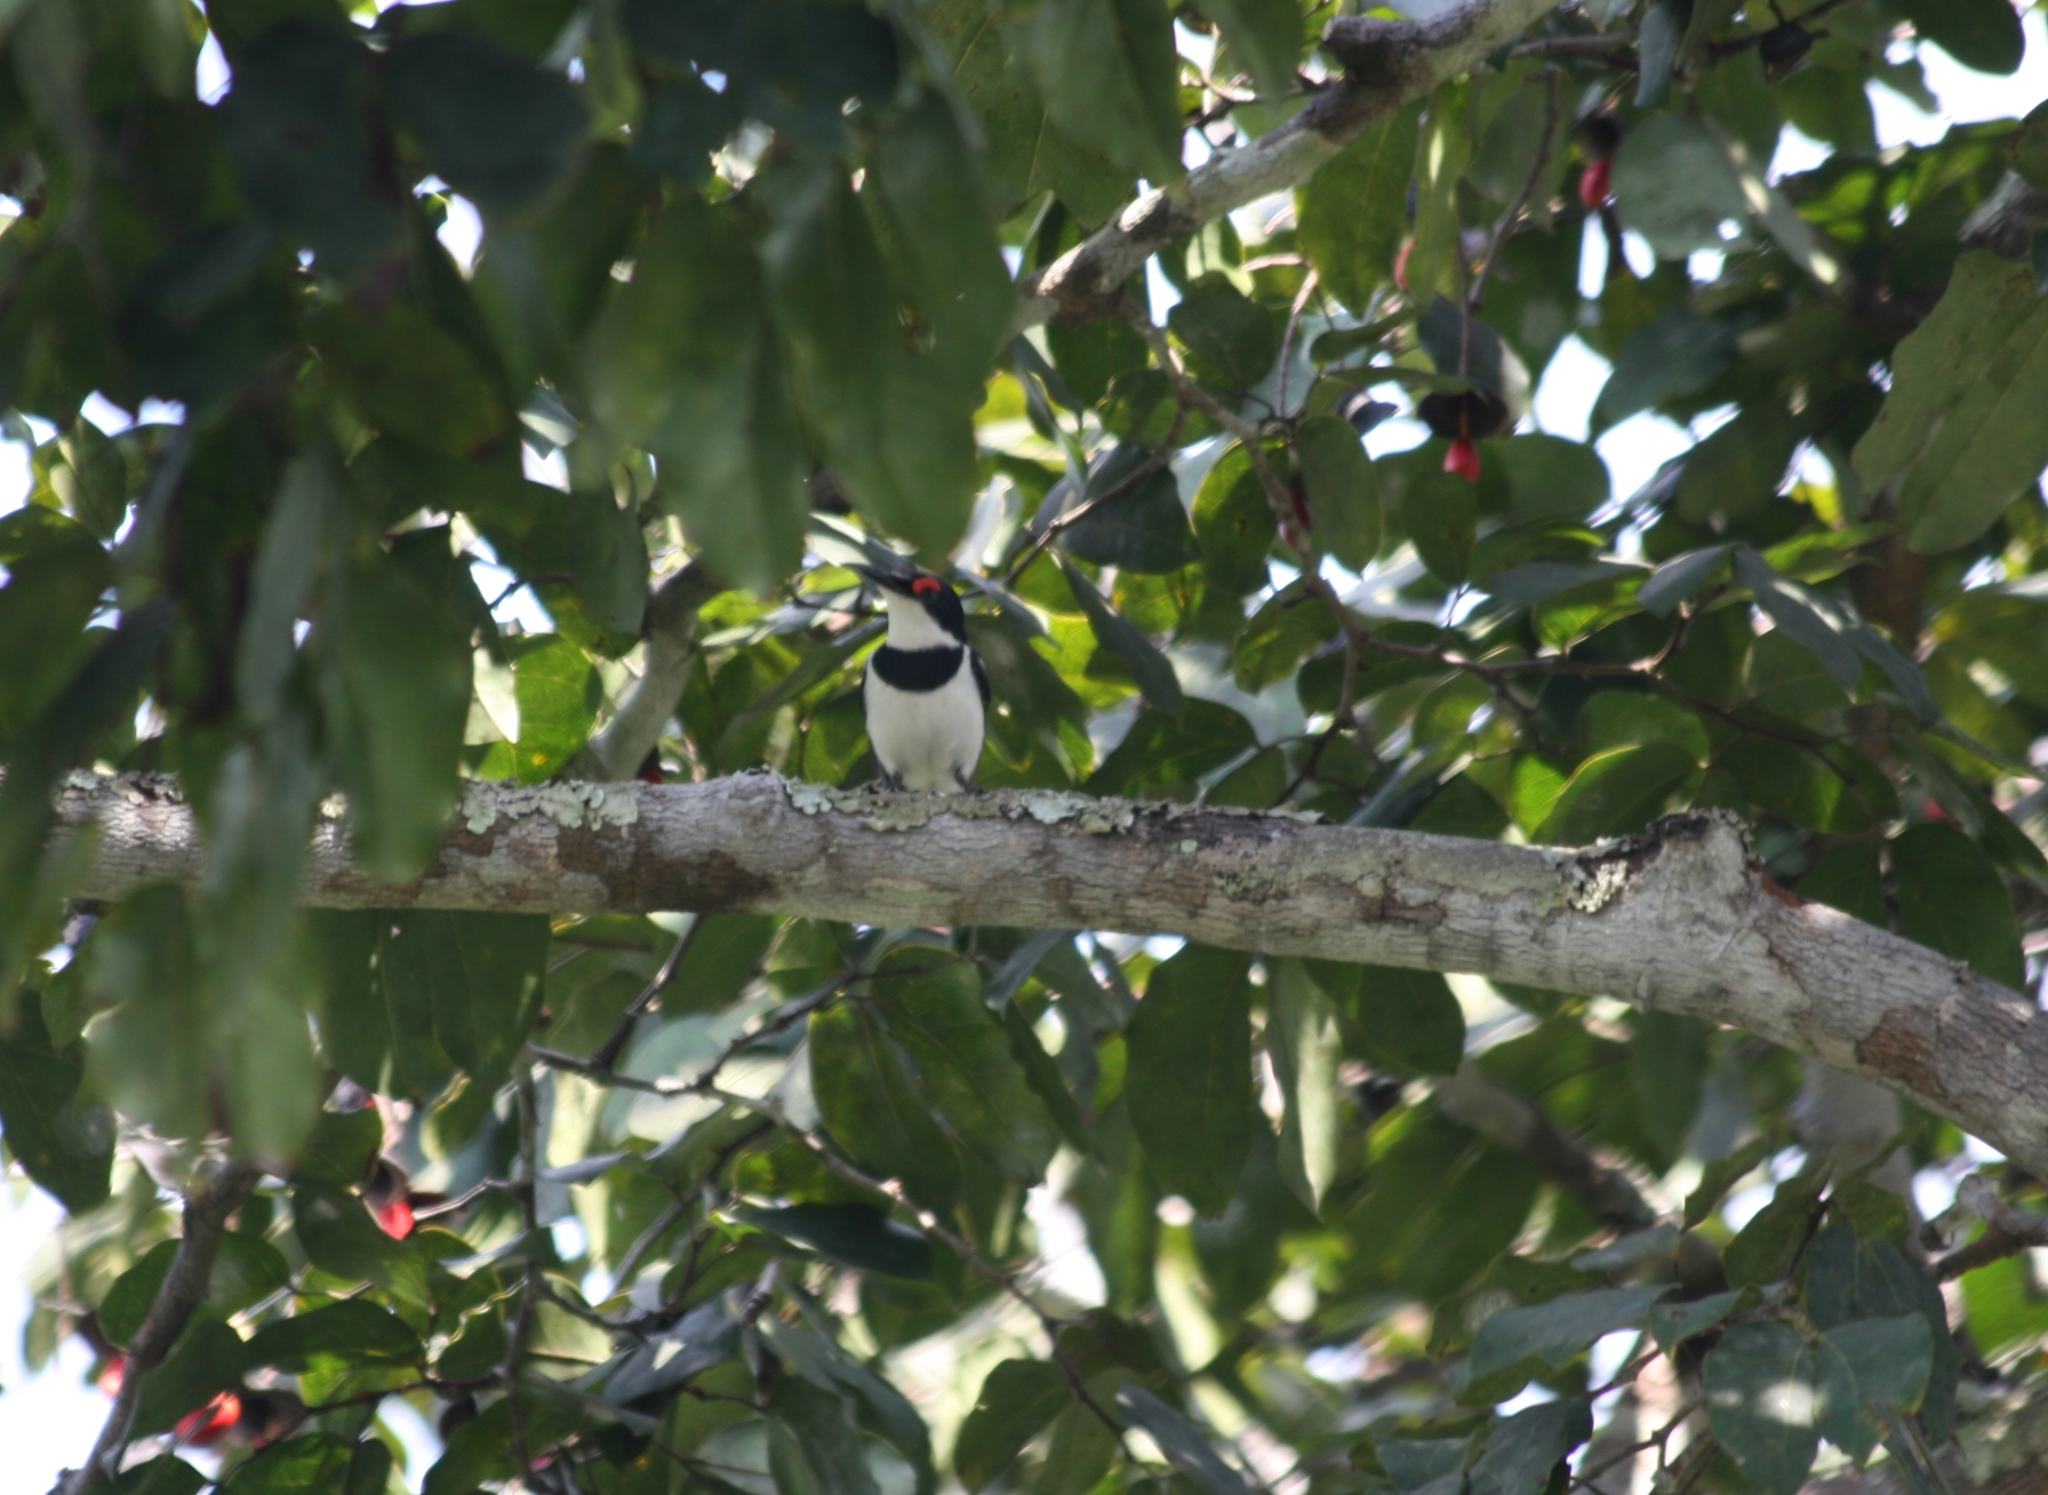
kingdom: Animalia
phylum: Chordata
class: Aves
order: Passeriformes
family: Platysteiridae
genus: Platysteira
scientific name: Platysteira cyanea
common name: Brown-throated wattle-eye
